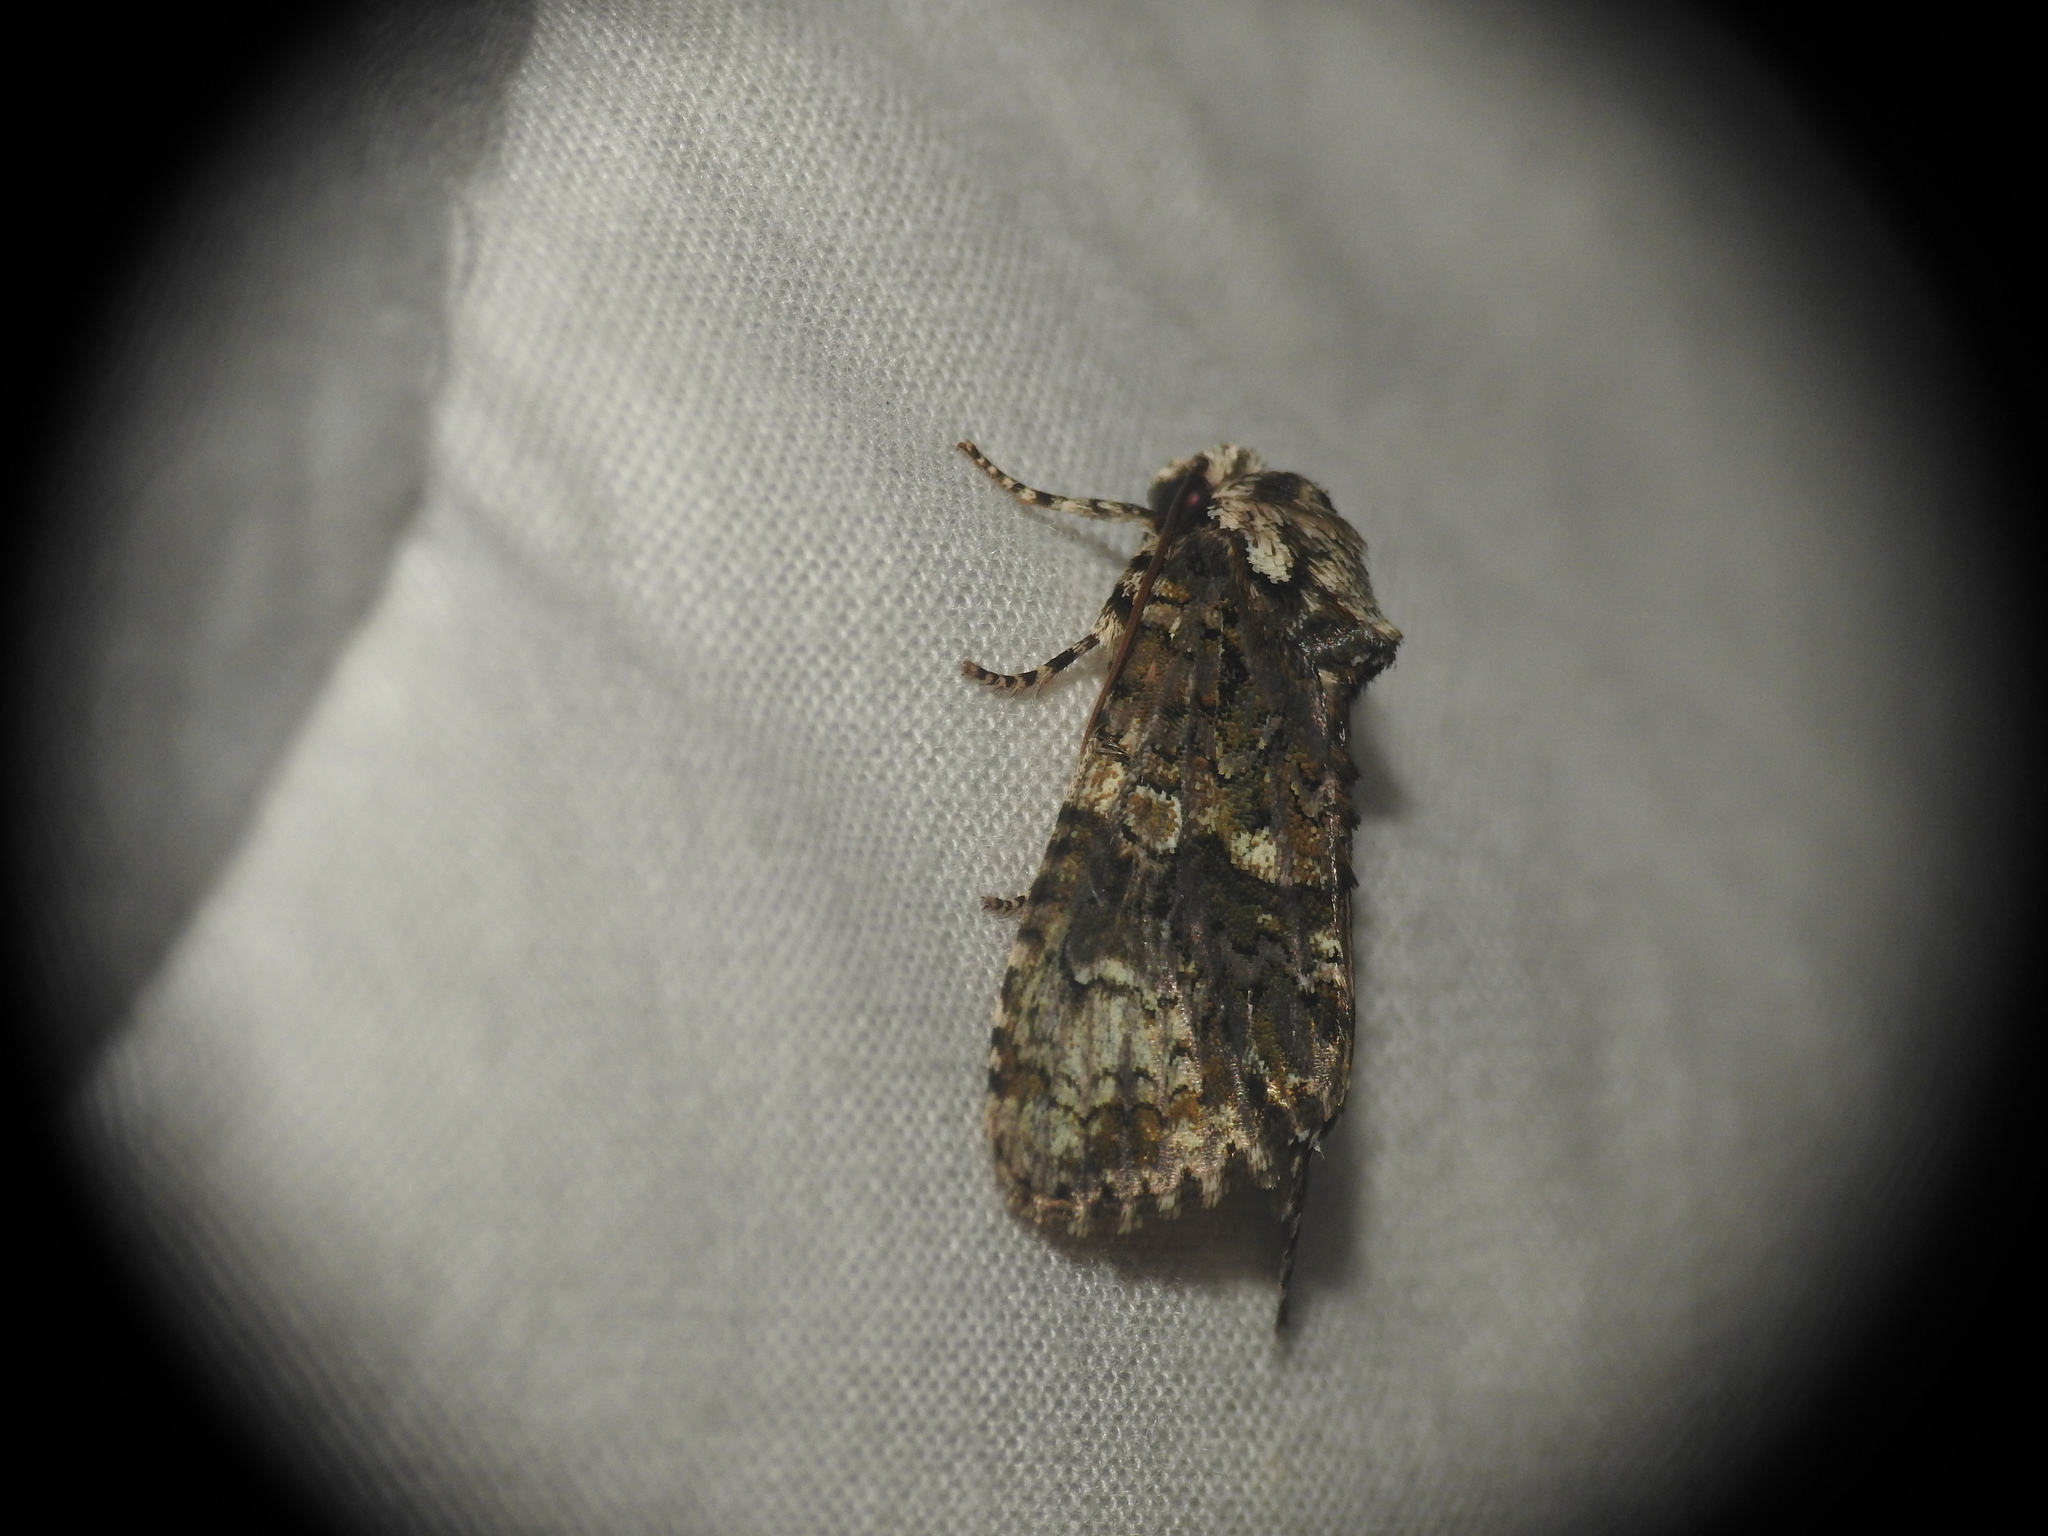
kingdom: Animalia
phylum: Arthropoda
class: Insecta
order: Lepidoptera
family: Noctuidae
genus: Craniophora
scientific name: Craniophora ligustri
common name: Coronet
